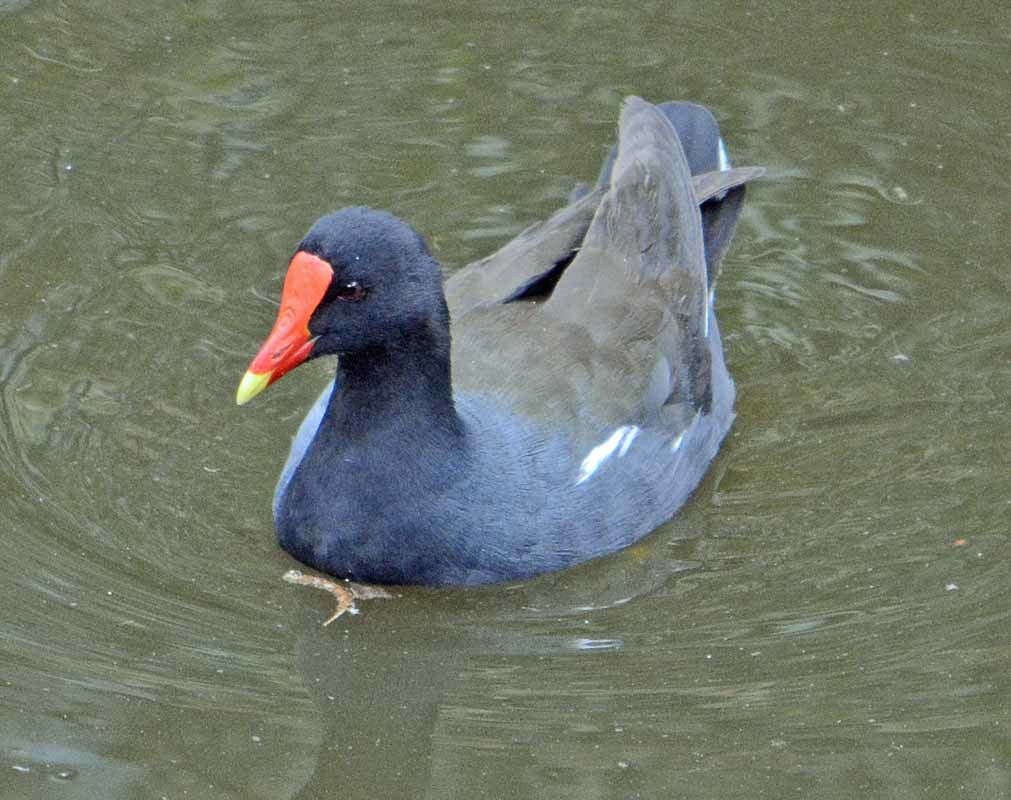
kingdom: Animalia
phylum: Chordata
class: Aves
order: Gruiformes
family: Rallidae
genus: Gallinula
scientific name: Gallinula chloropus
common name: Common moorhen
